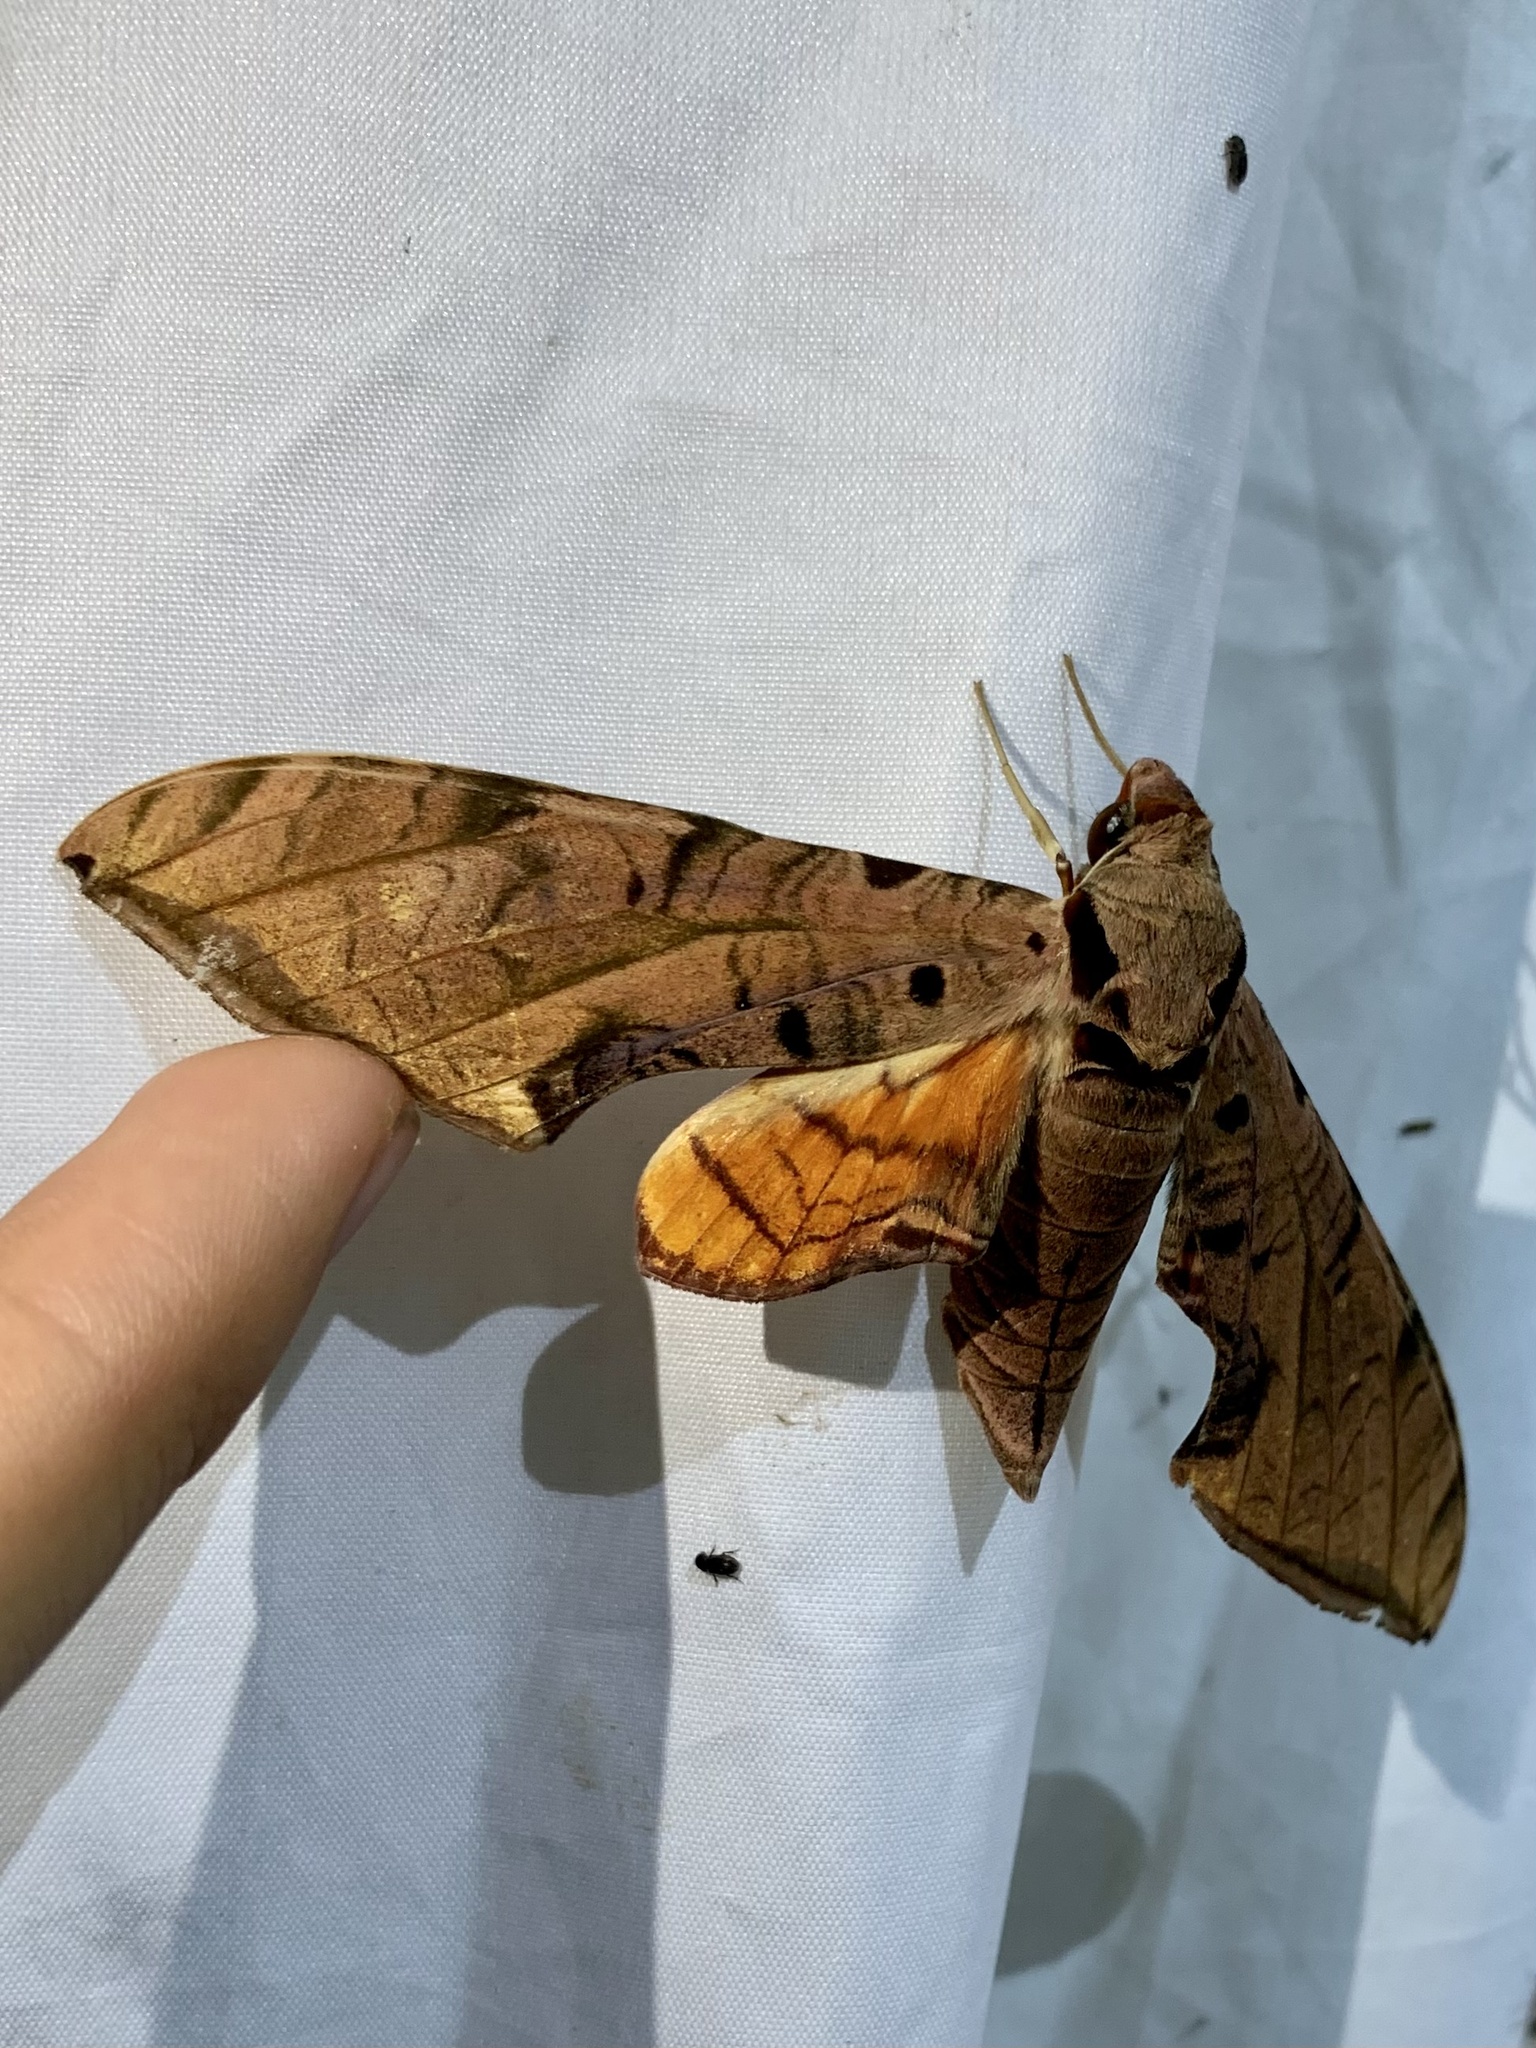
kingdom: Animalia
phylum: Arthropoda
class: Insecta
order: Lepidoptera
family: Sphingidae
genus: Protambulyx
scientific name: Protambulyx strigilis
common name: Streaked sphinx
